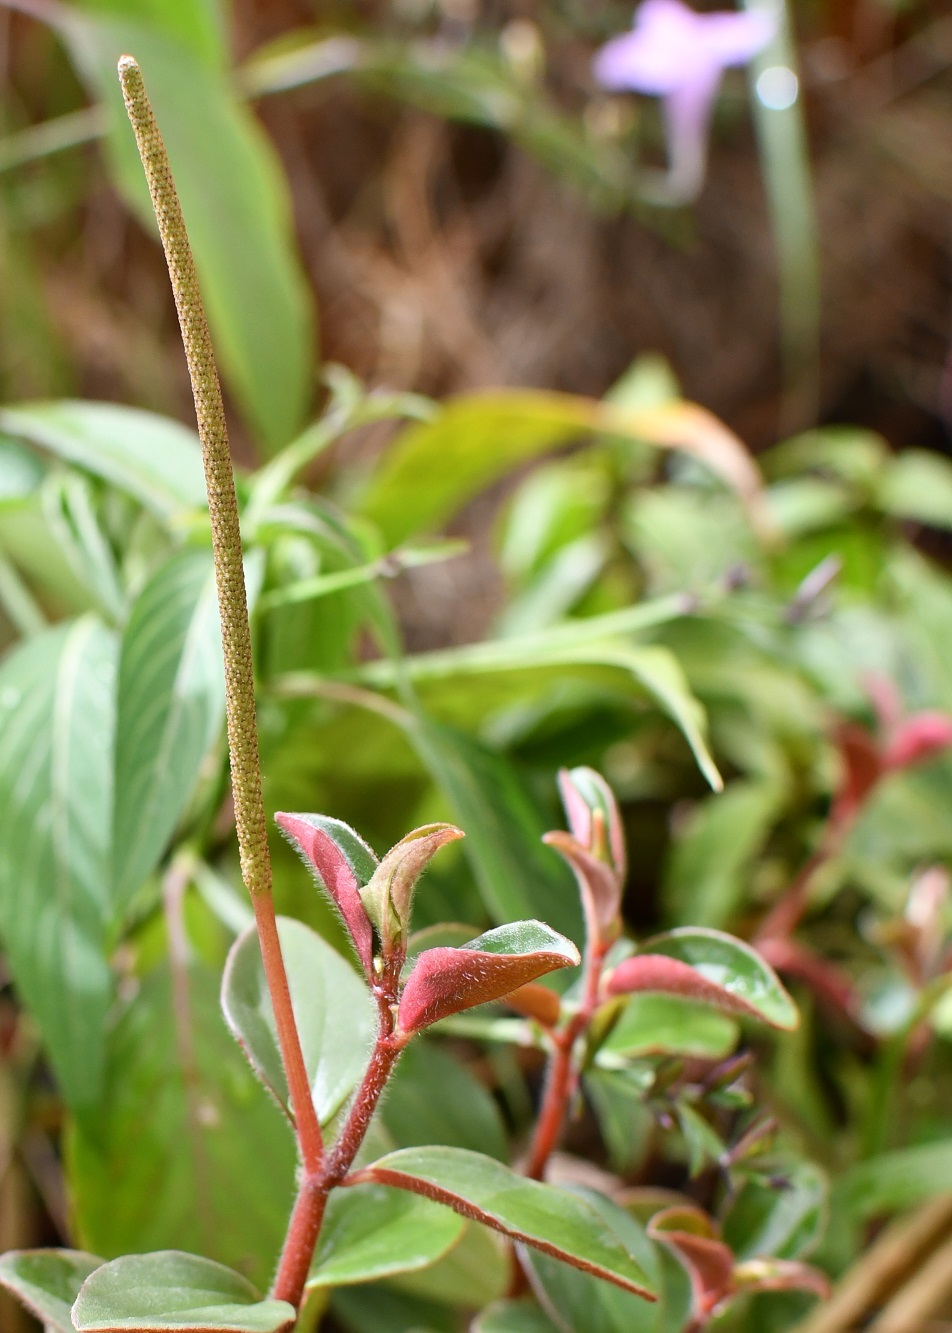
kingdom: Plantae
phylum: Tracheophyta
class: Magnoliopsida
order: Piperales
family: Piperaceae
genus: Peperomia
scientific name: Peperomia consoquitlana
